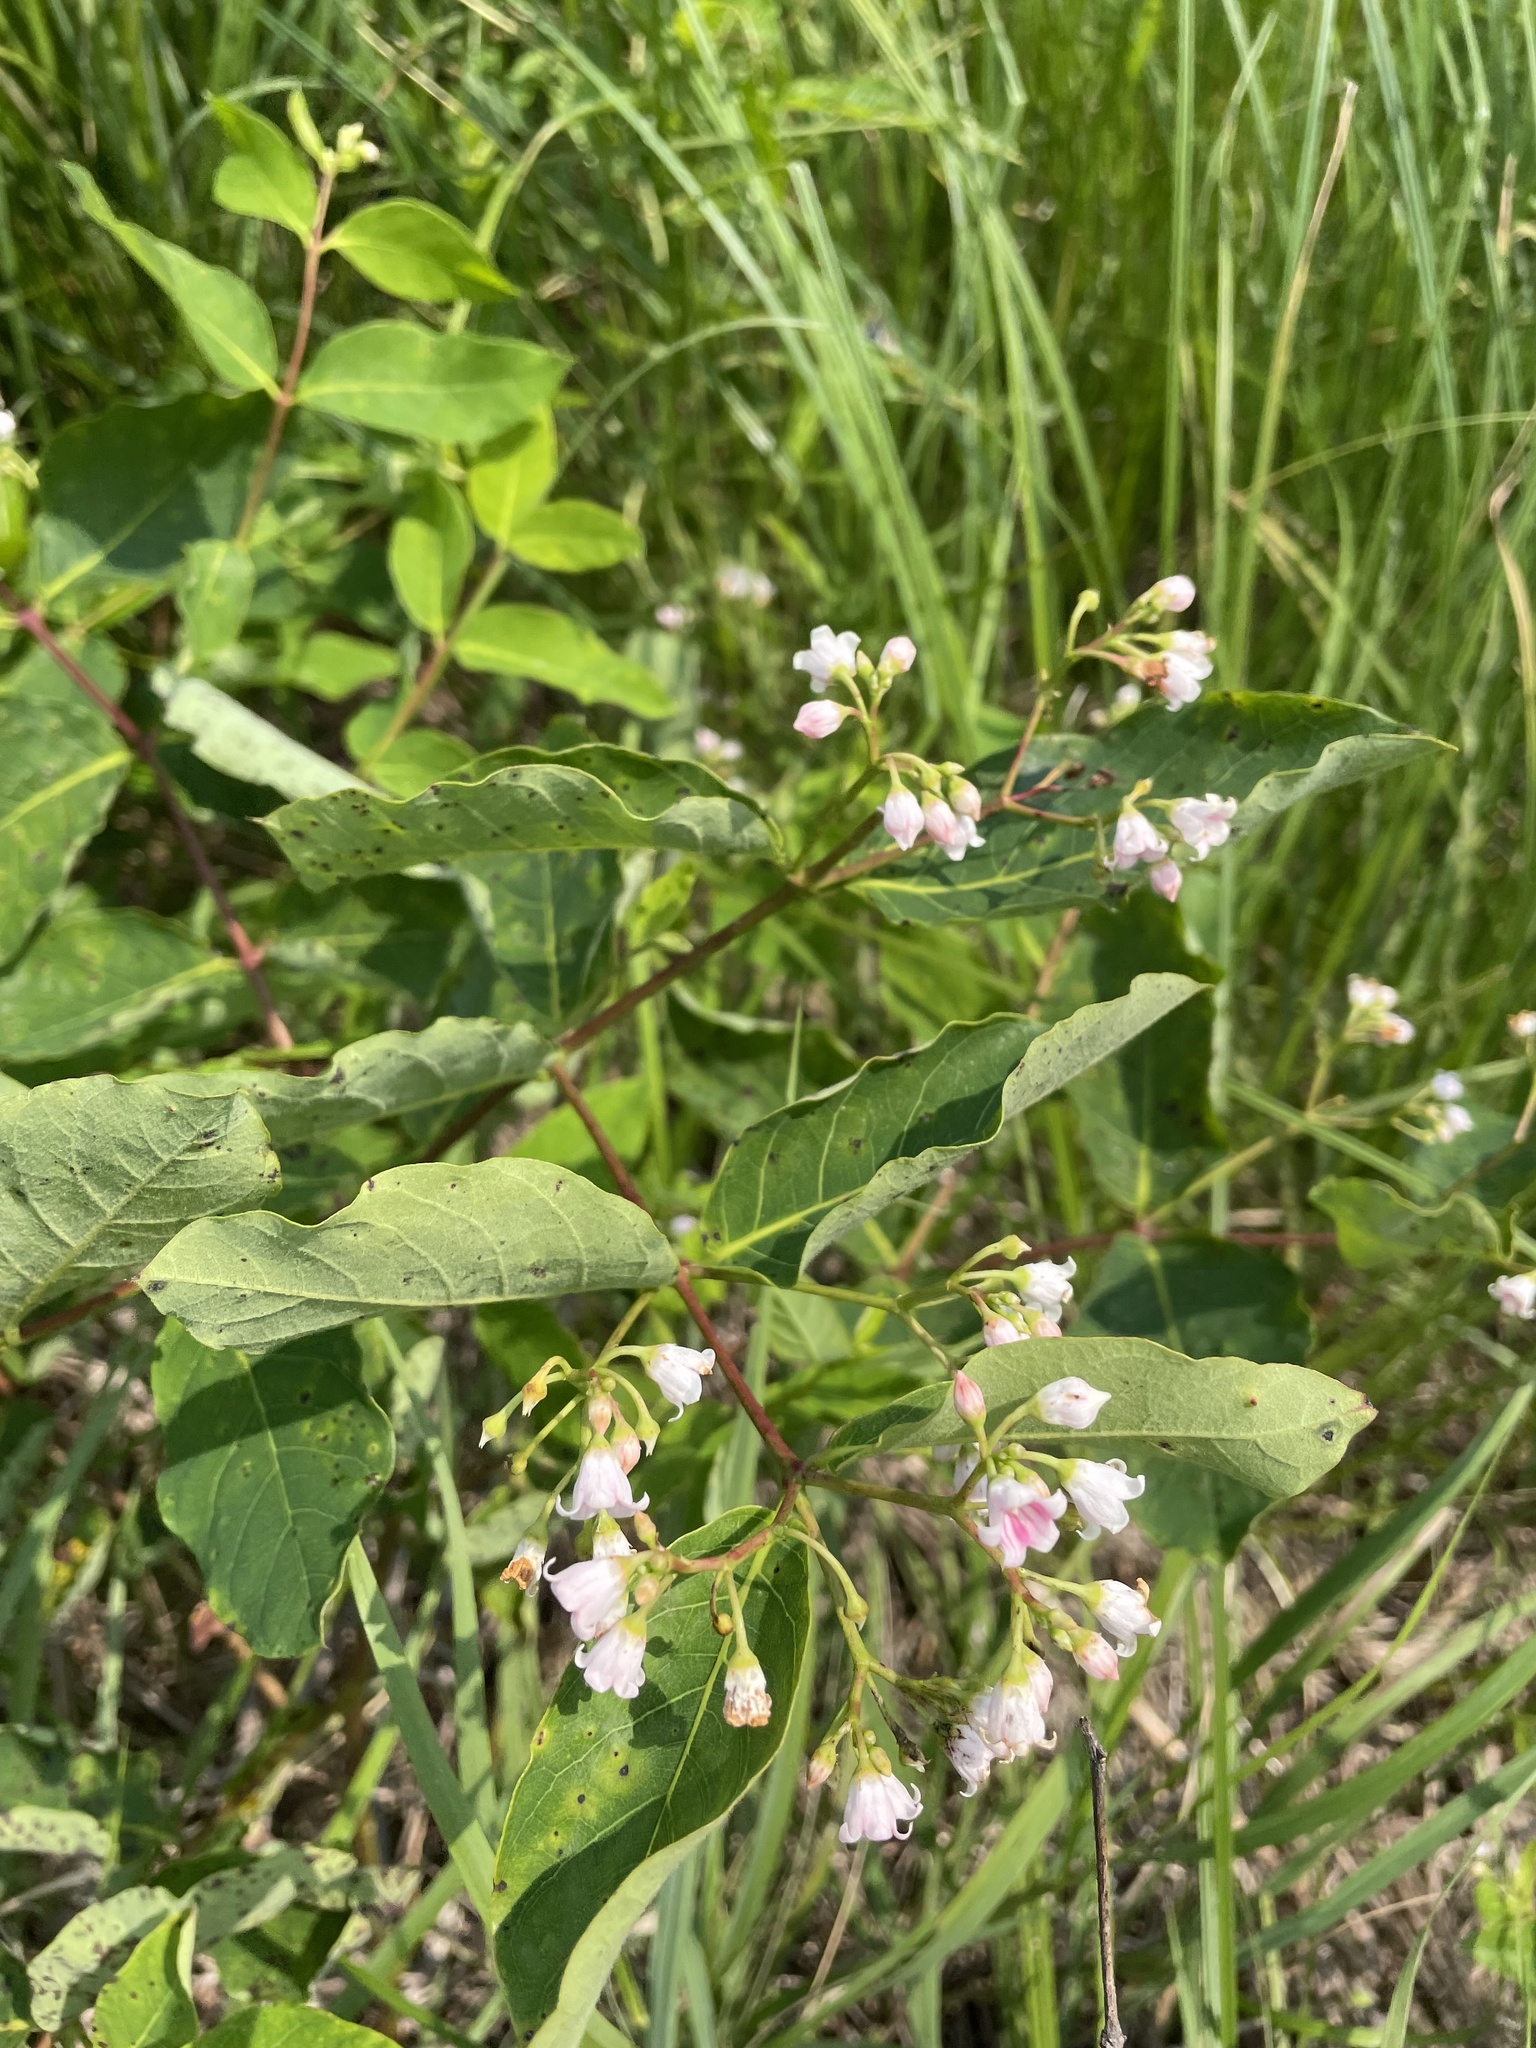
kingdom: Plantae
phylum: Tracheophyta
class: Magnoliopsida
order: Gentianales
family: Apocynaceae
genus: Apocynum
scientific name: Apocynum androsaemifolium
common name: Spreading dogbane
